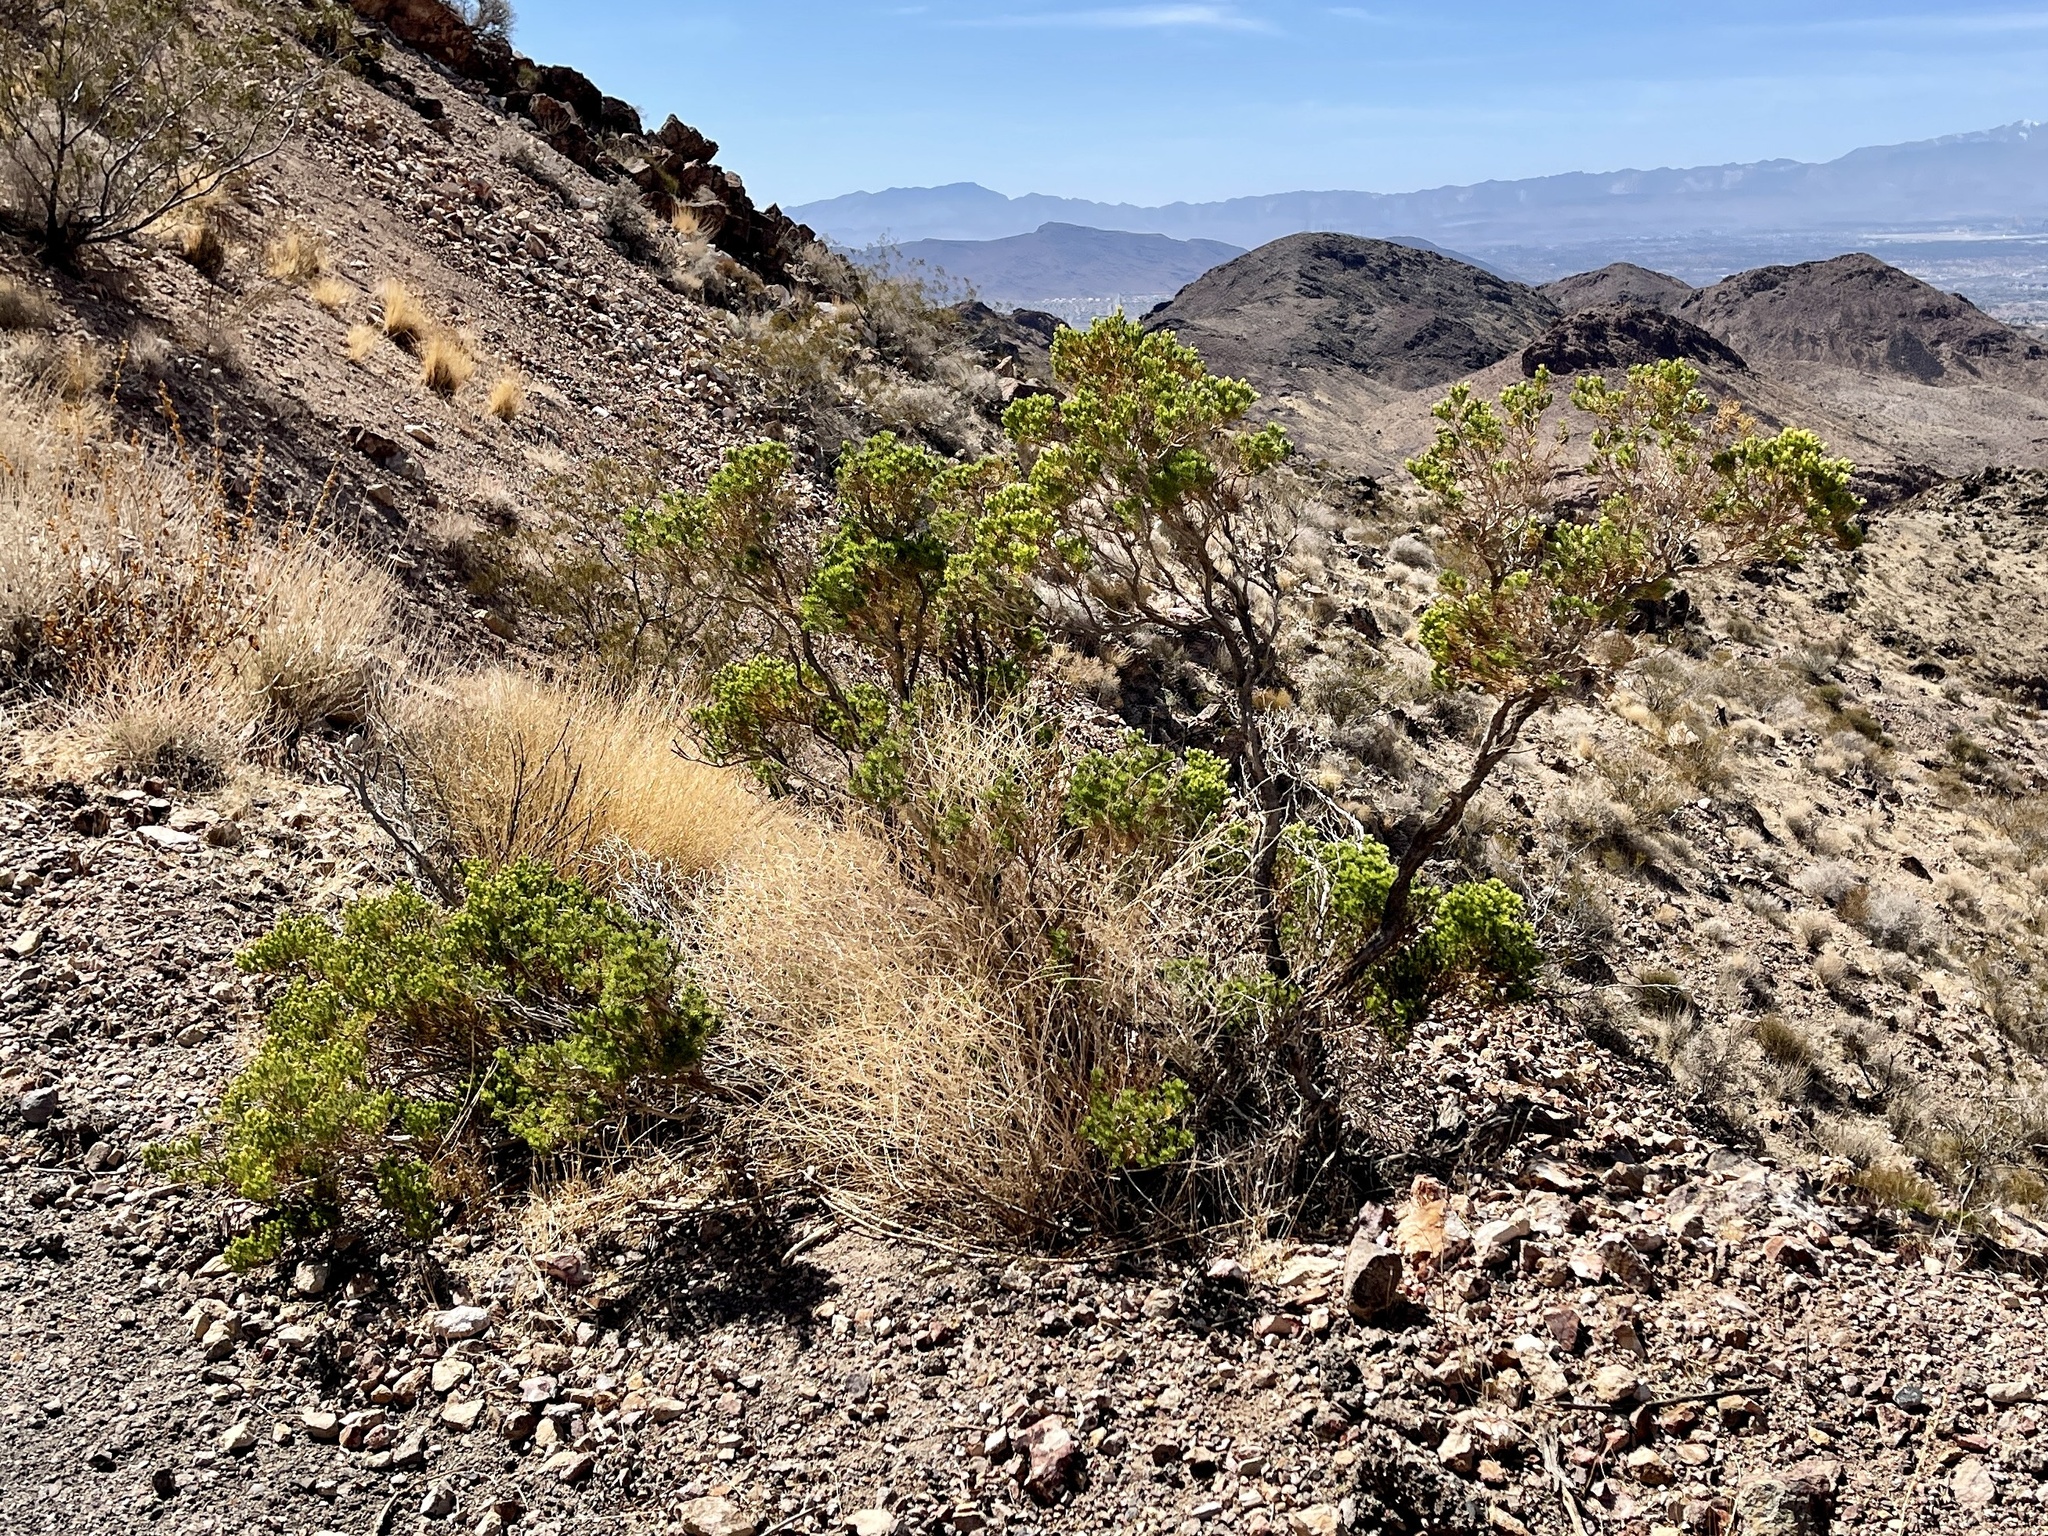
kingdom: Plantae
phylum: Tracheophyta
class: Magnoliopsida
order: Asterales
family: Asteraceae
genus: Peucephyllum
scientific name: Peucephyllum schottii
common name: Pygmy-cedar
